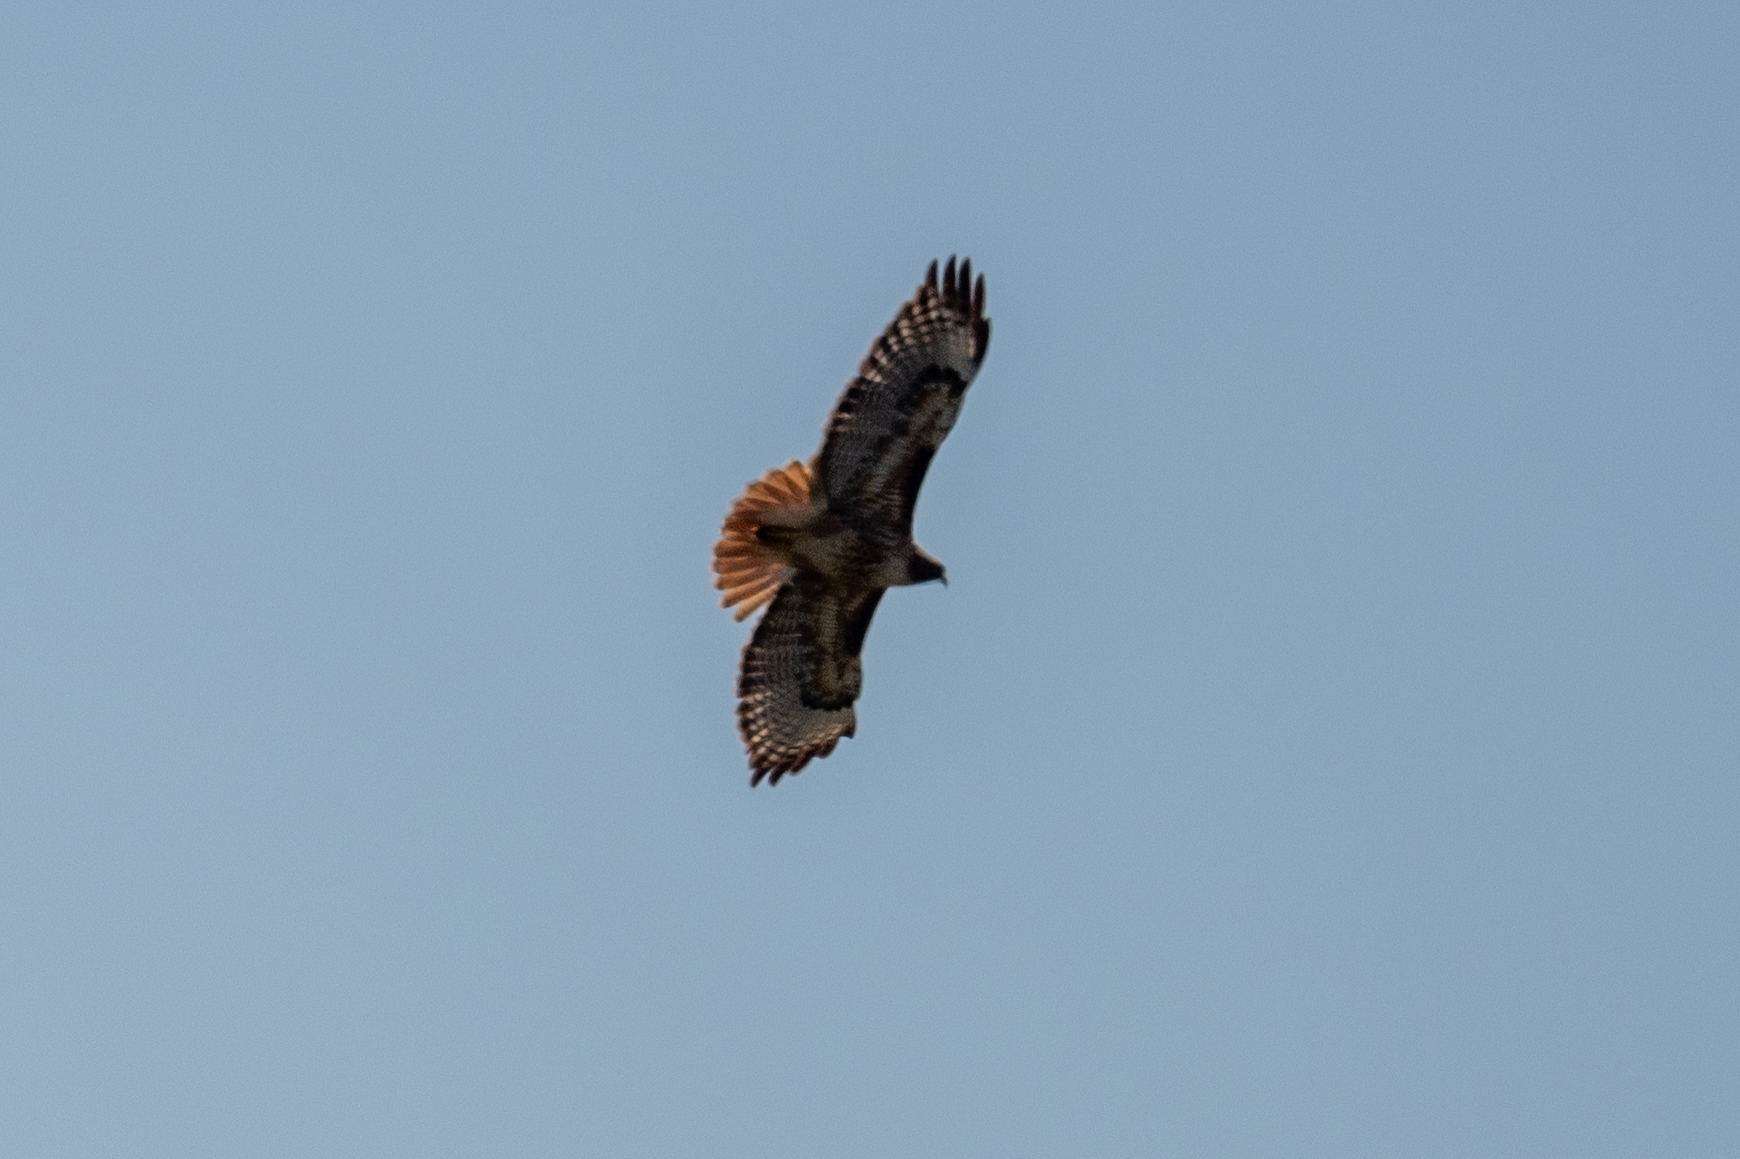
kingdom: Animalia
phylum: Chordata
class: Aves
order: Accipitriformes
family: Accipitridae
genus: Buteo
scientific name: Buteo jamaicensis
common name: Red-tailed hawk
